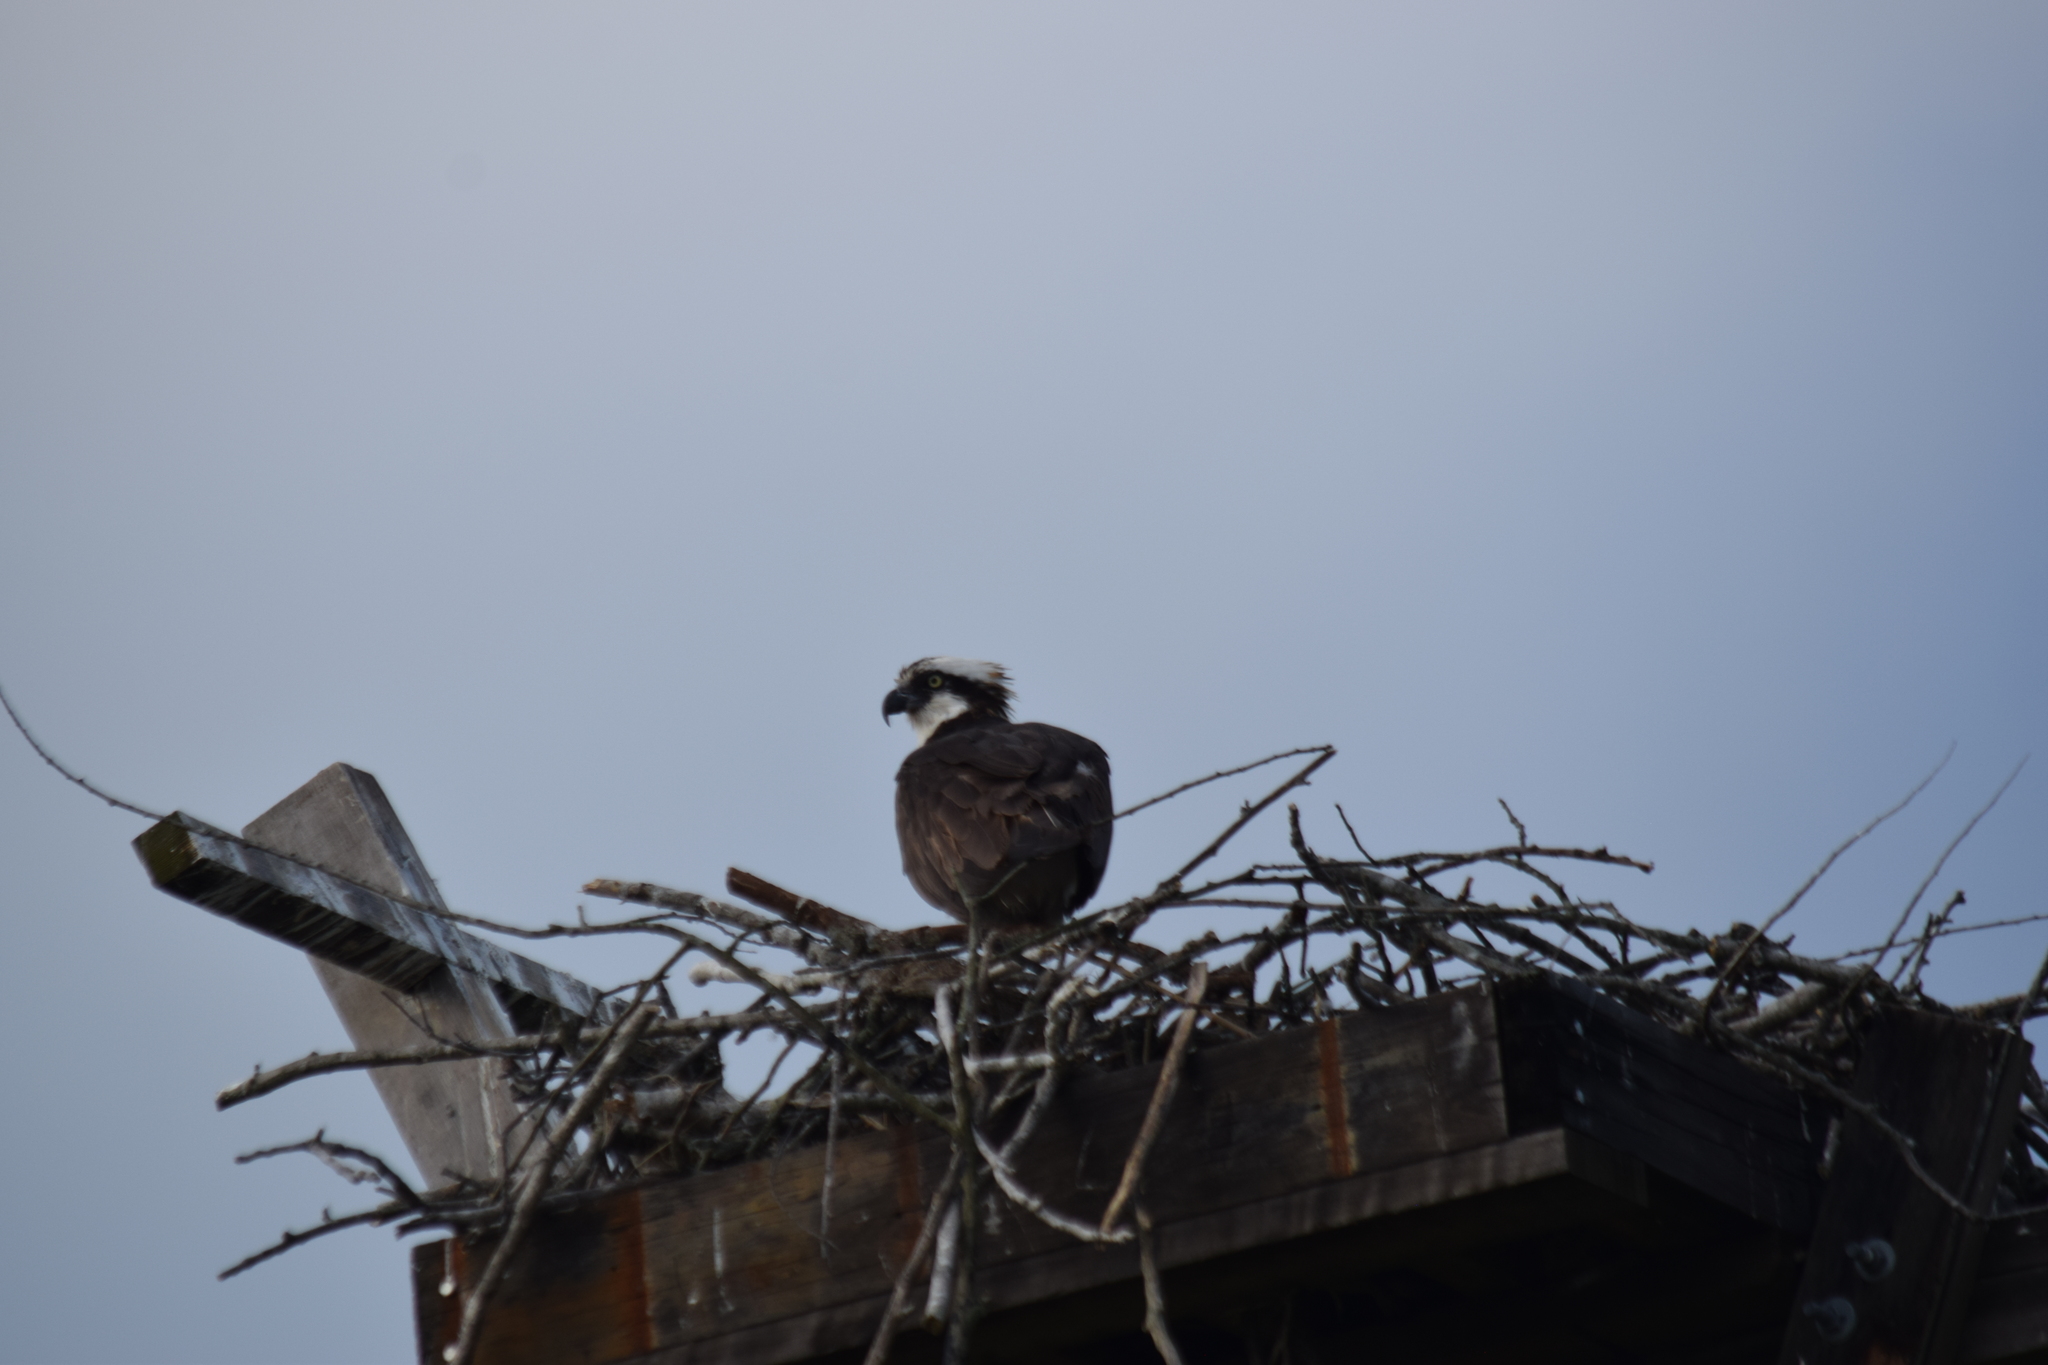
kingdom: Animalia
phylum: Chordata
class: Aves
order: Accipitriformes
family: Pandionidae
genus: Pandion
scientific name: Pandion haliaetus
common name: Osprey
